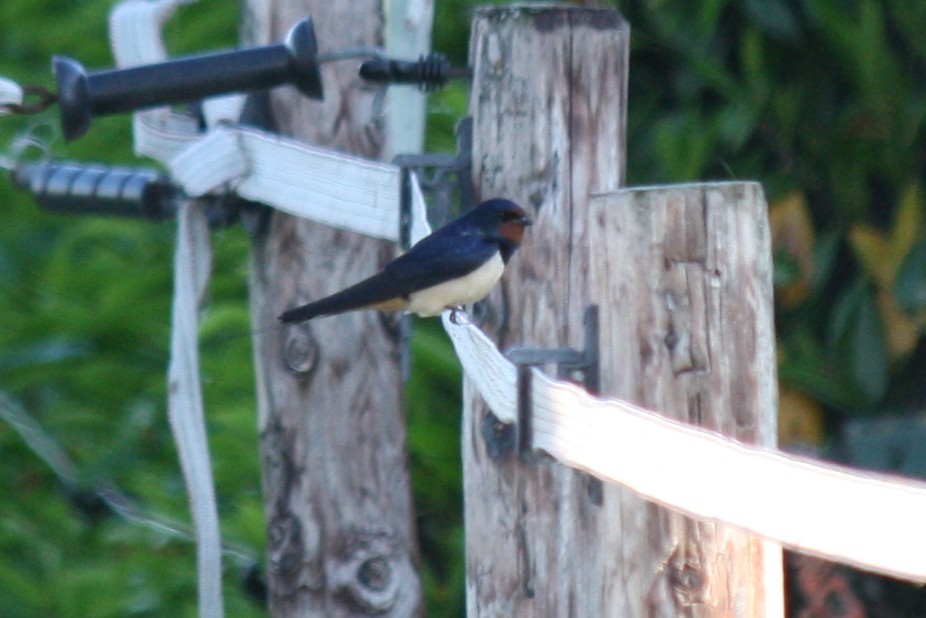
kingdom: Animalia
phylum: Chordata
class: Aves
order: Passeriformes
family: Hirundinidae
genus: Hirundo
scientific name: Hirundo rustica
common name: Barn swallow
